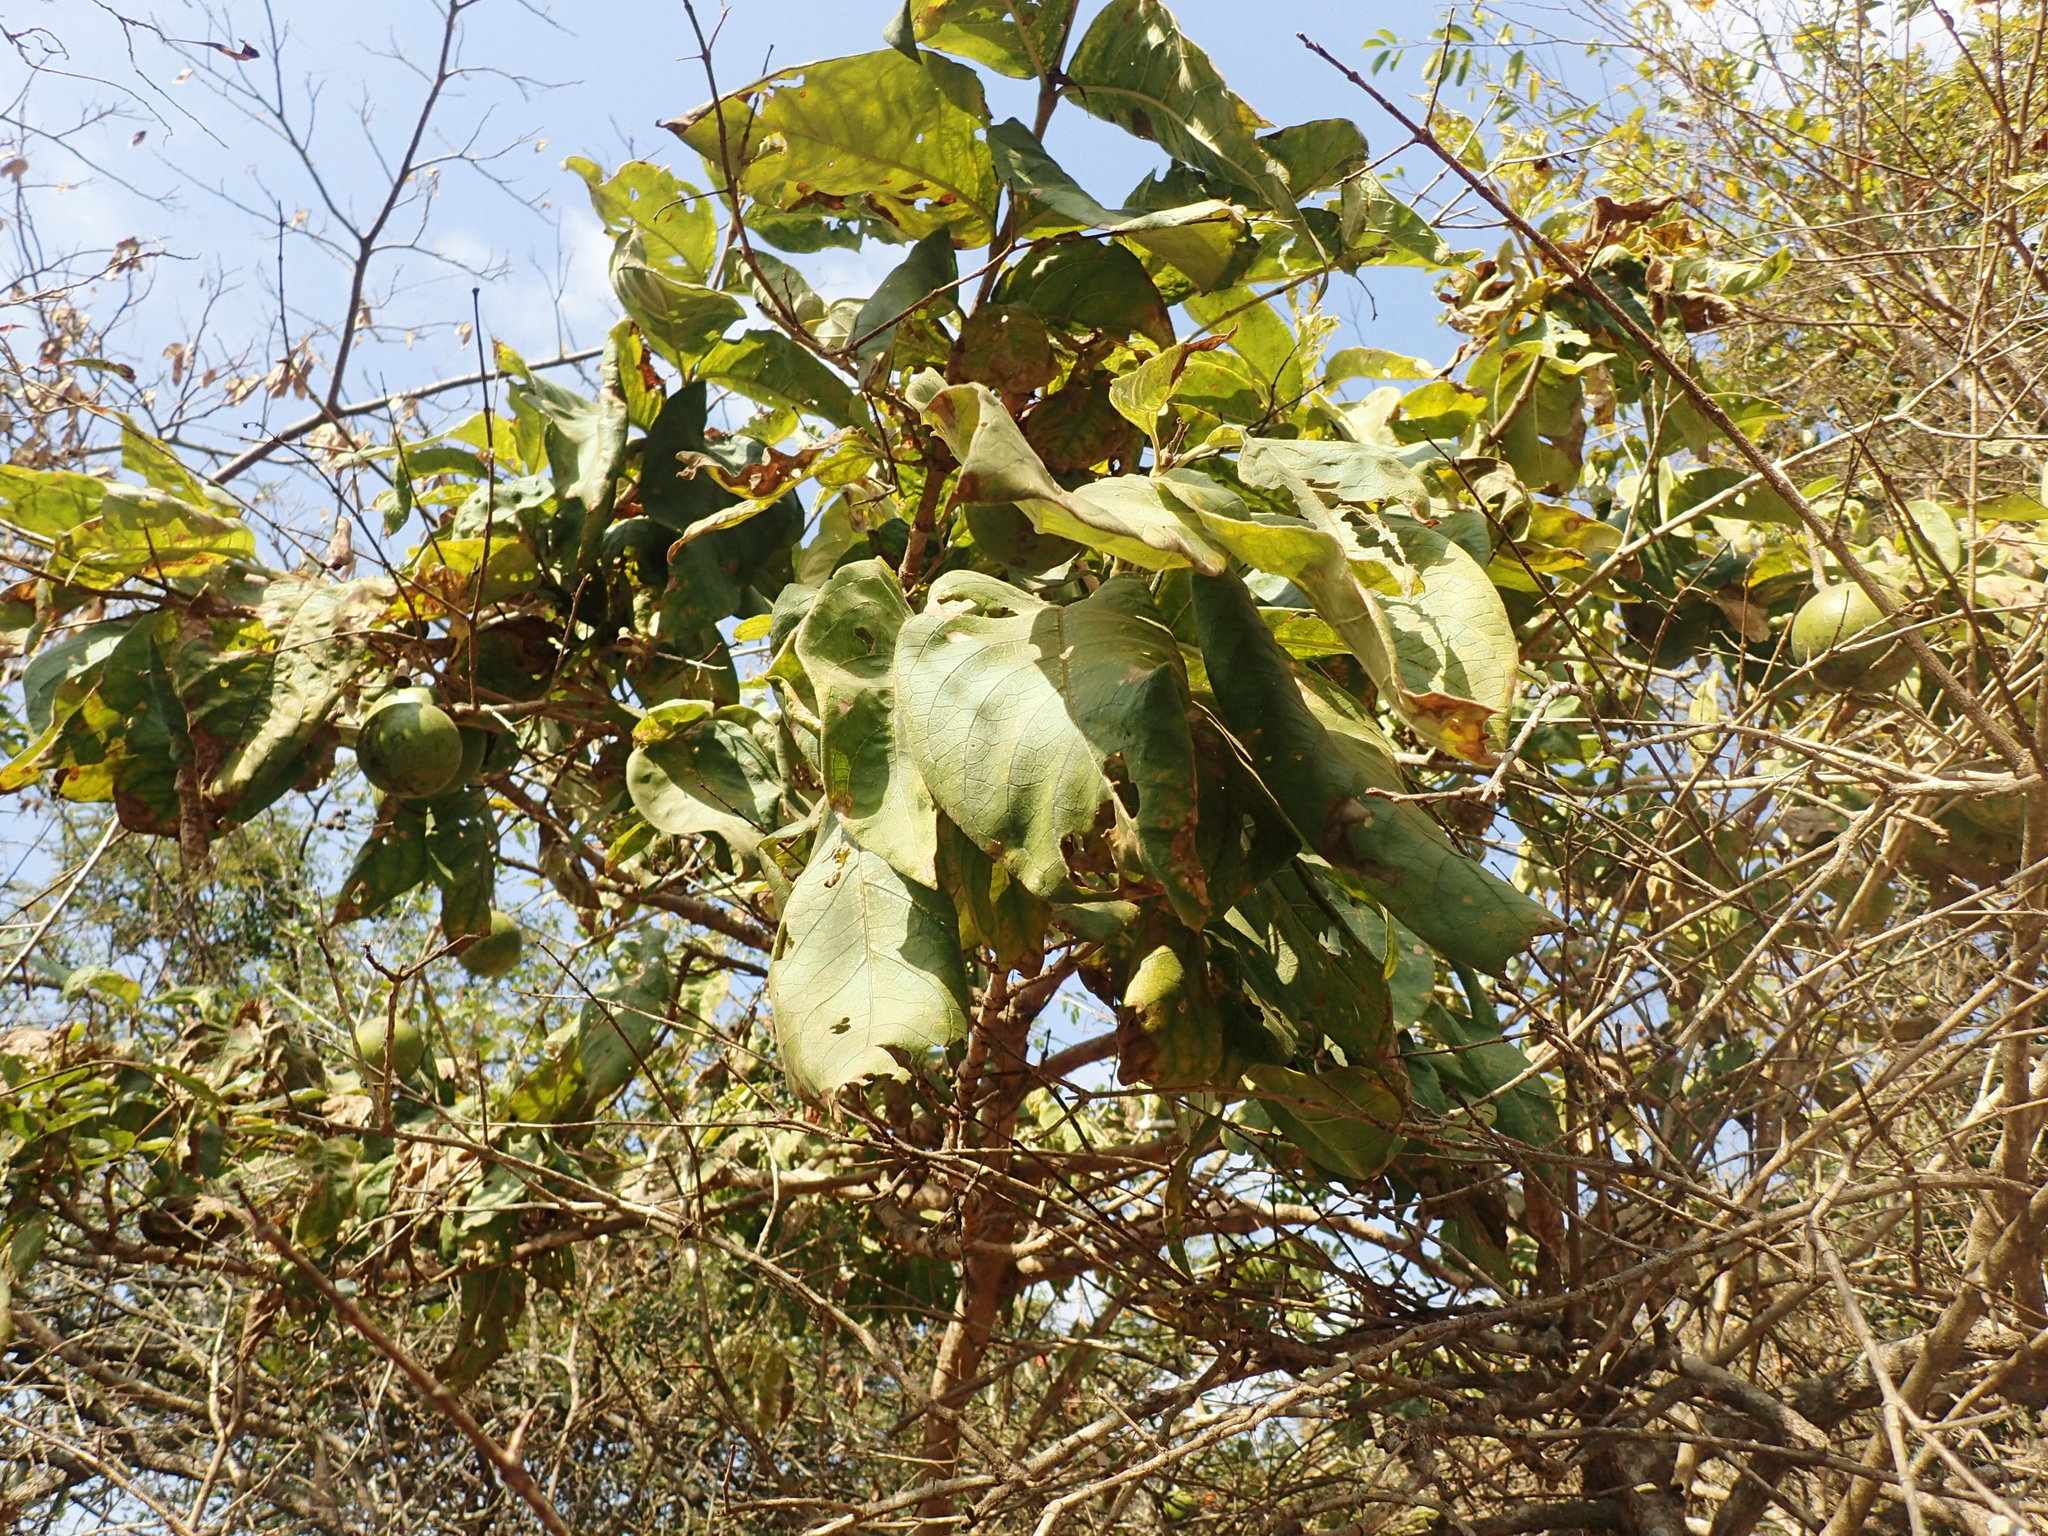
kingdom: Plantae
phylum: Tracheophyta
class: Magnoliopsida
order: Gentianales
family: Rubiaceae
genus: Vangueria
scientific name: Vangueria infausta
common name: Medlar
